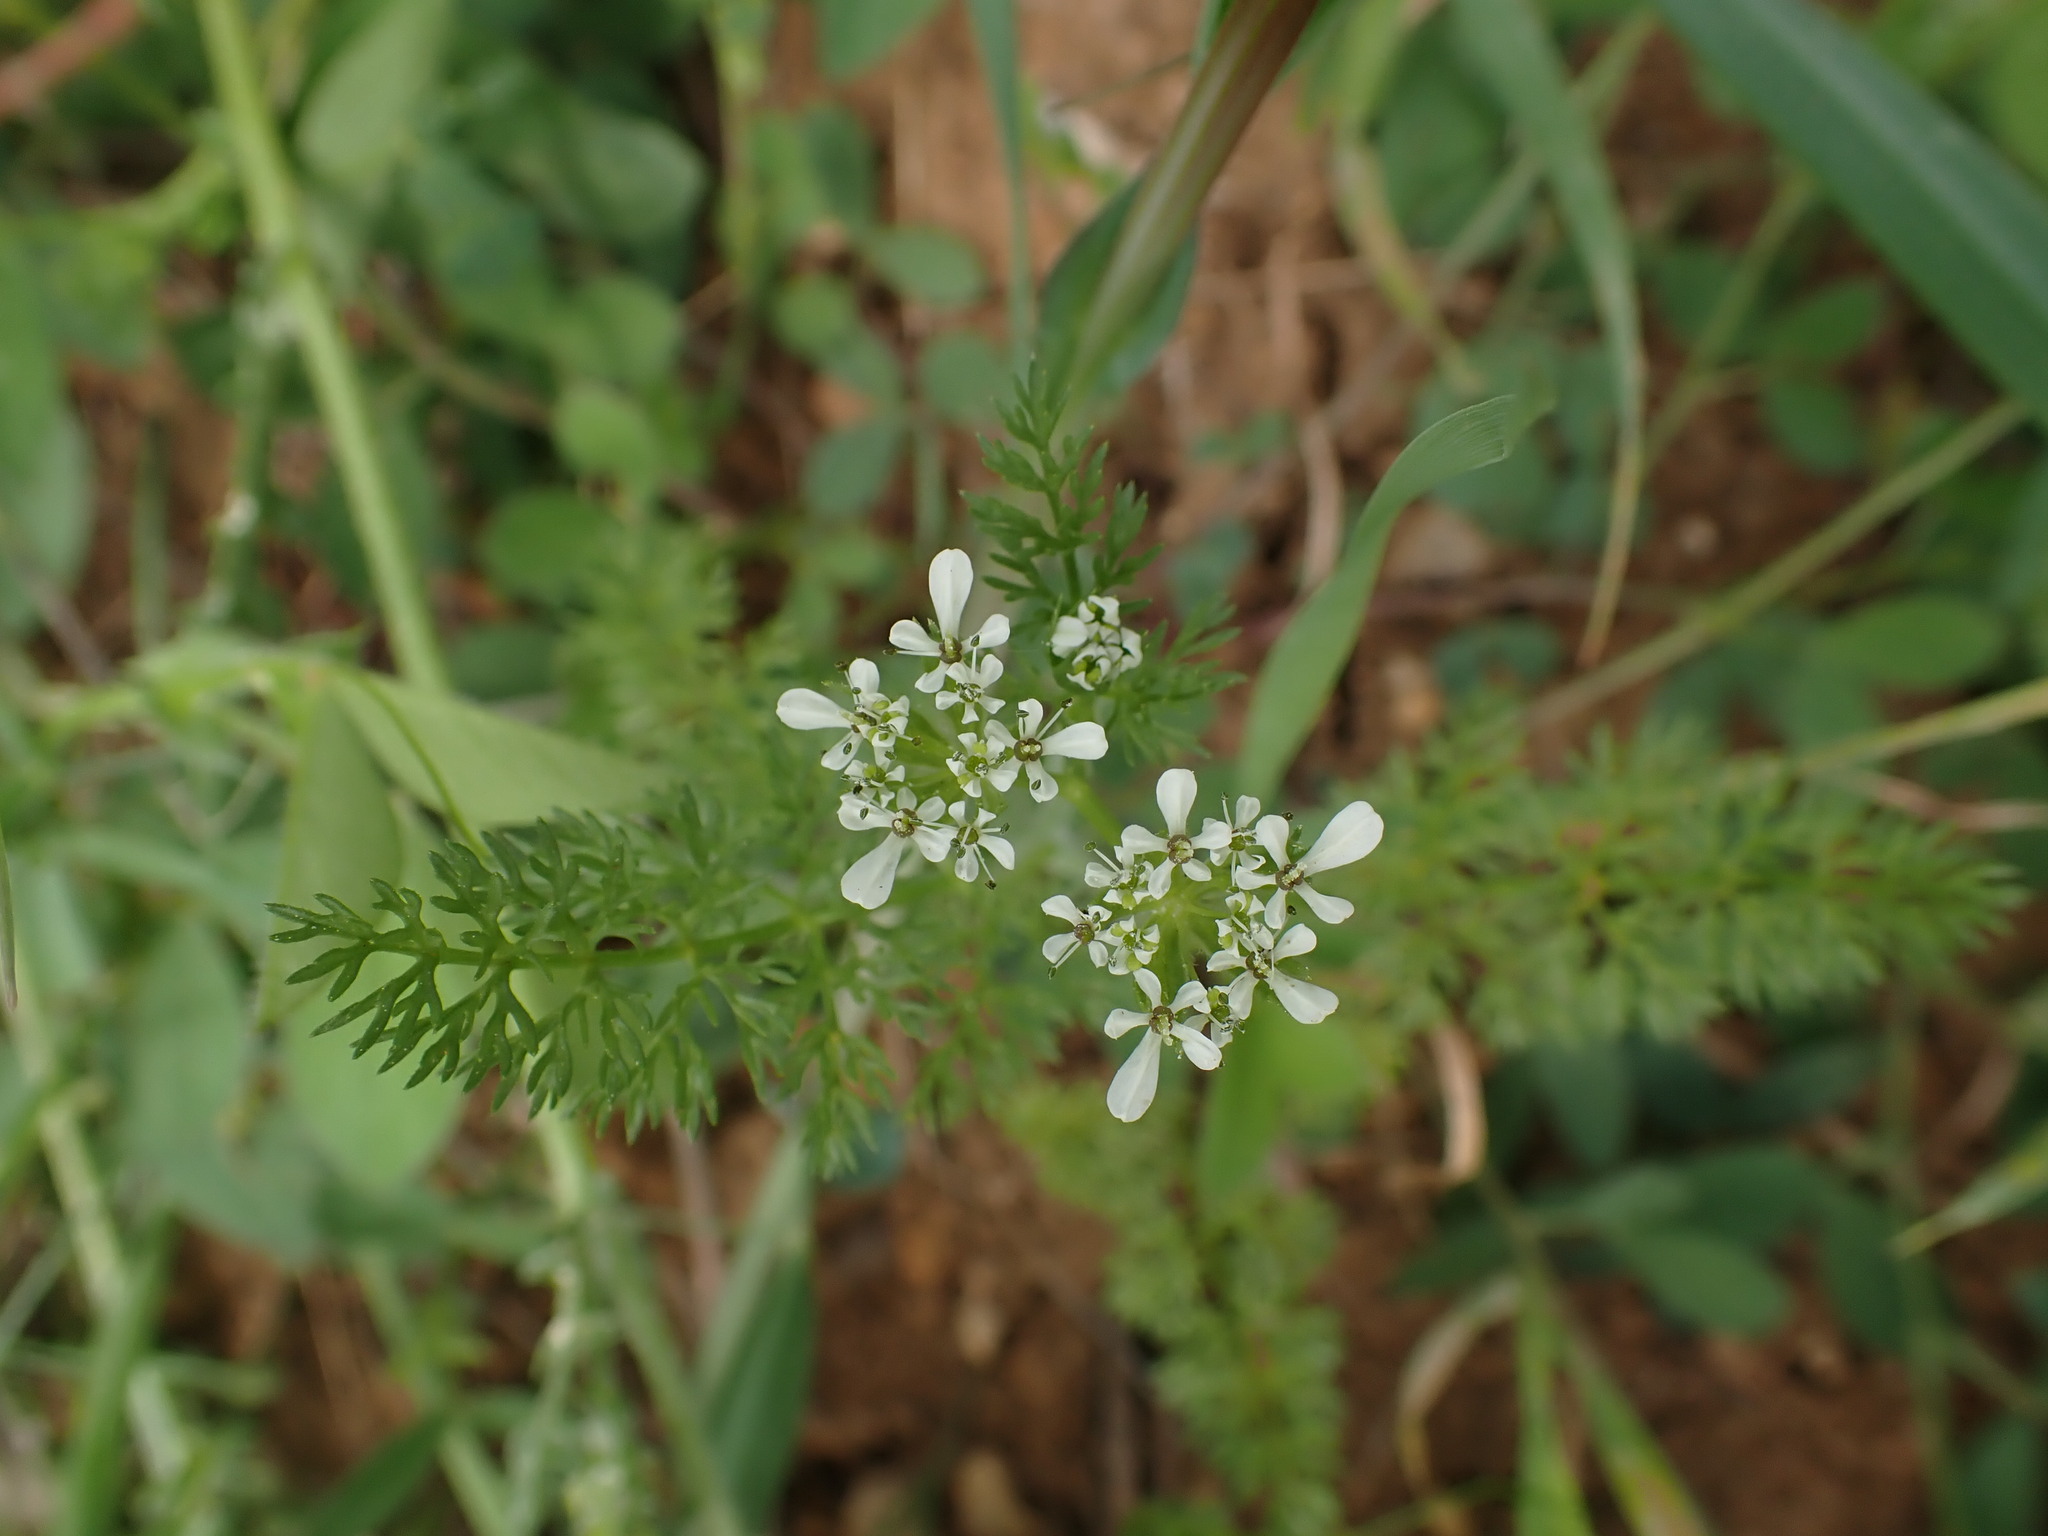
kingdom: Plantae
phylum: Tracheophyta
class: Magnoliopsida
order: Apiales
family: Apiaceae
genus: Scandix
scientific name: Scandix pecten-veneris
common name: Shepherd's-needle
